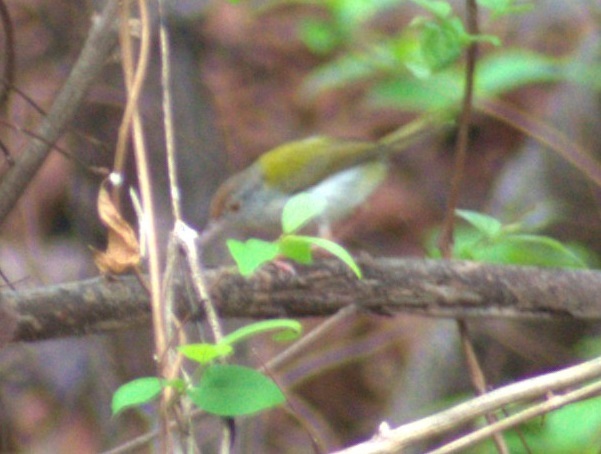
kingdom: Animalia
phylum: Chordata
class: Aves
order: Passeriformes
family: Cisticolidae
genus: Orthotomus
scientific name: Orthotomus sutorius
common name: Common tailorbird
